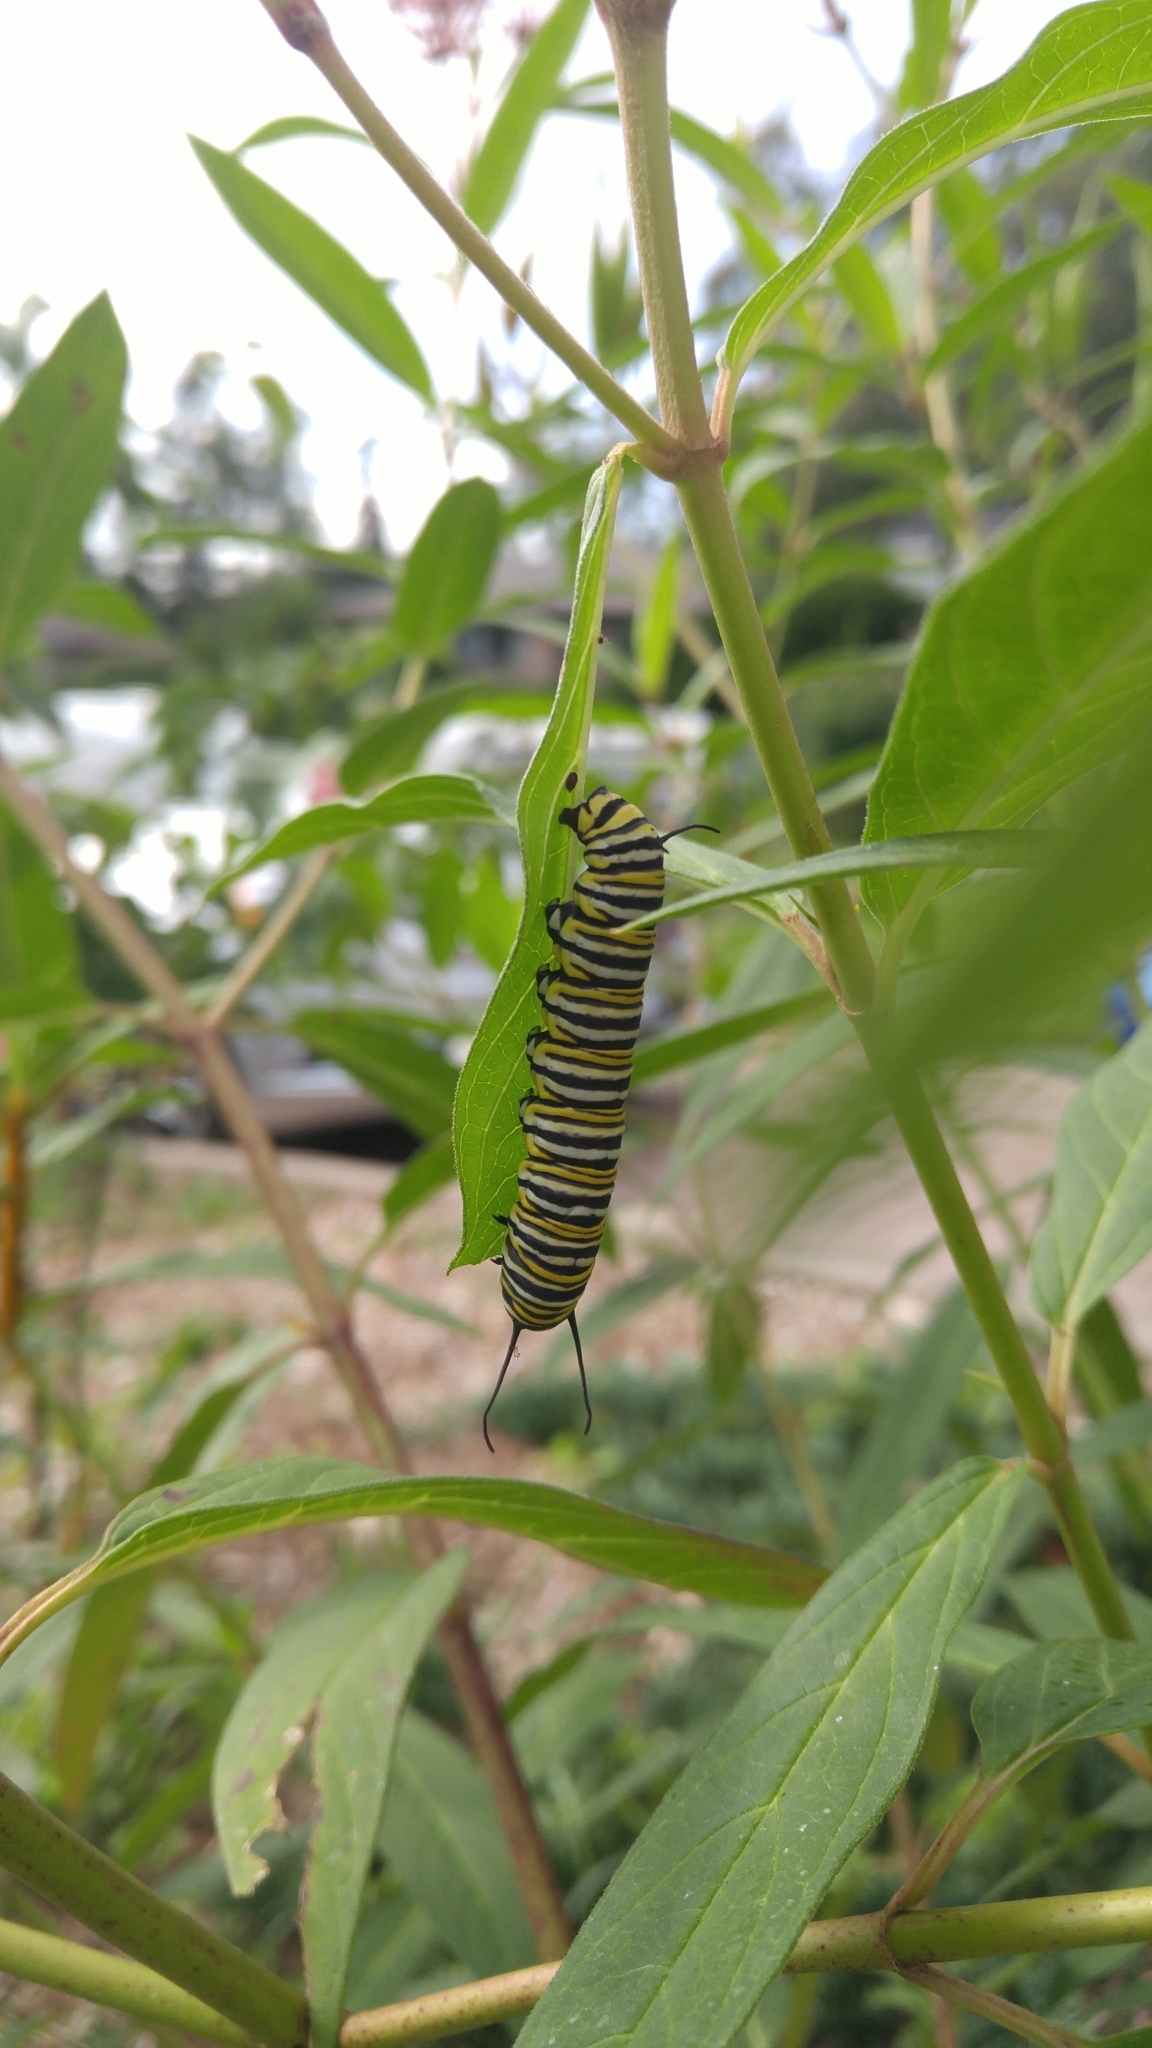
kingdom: Animalia
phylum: Arthropoda
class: Insecta
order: Lepidoptera
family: Nymphalidae
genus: Danaus
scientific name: Danaus plexippus
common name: Monarch
